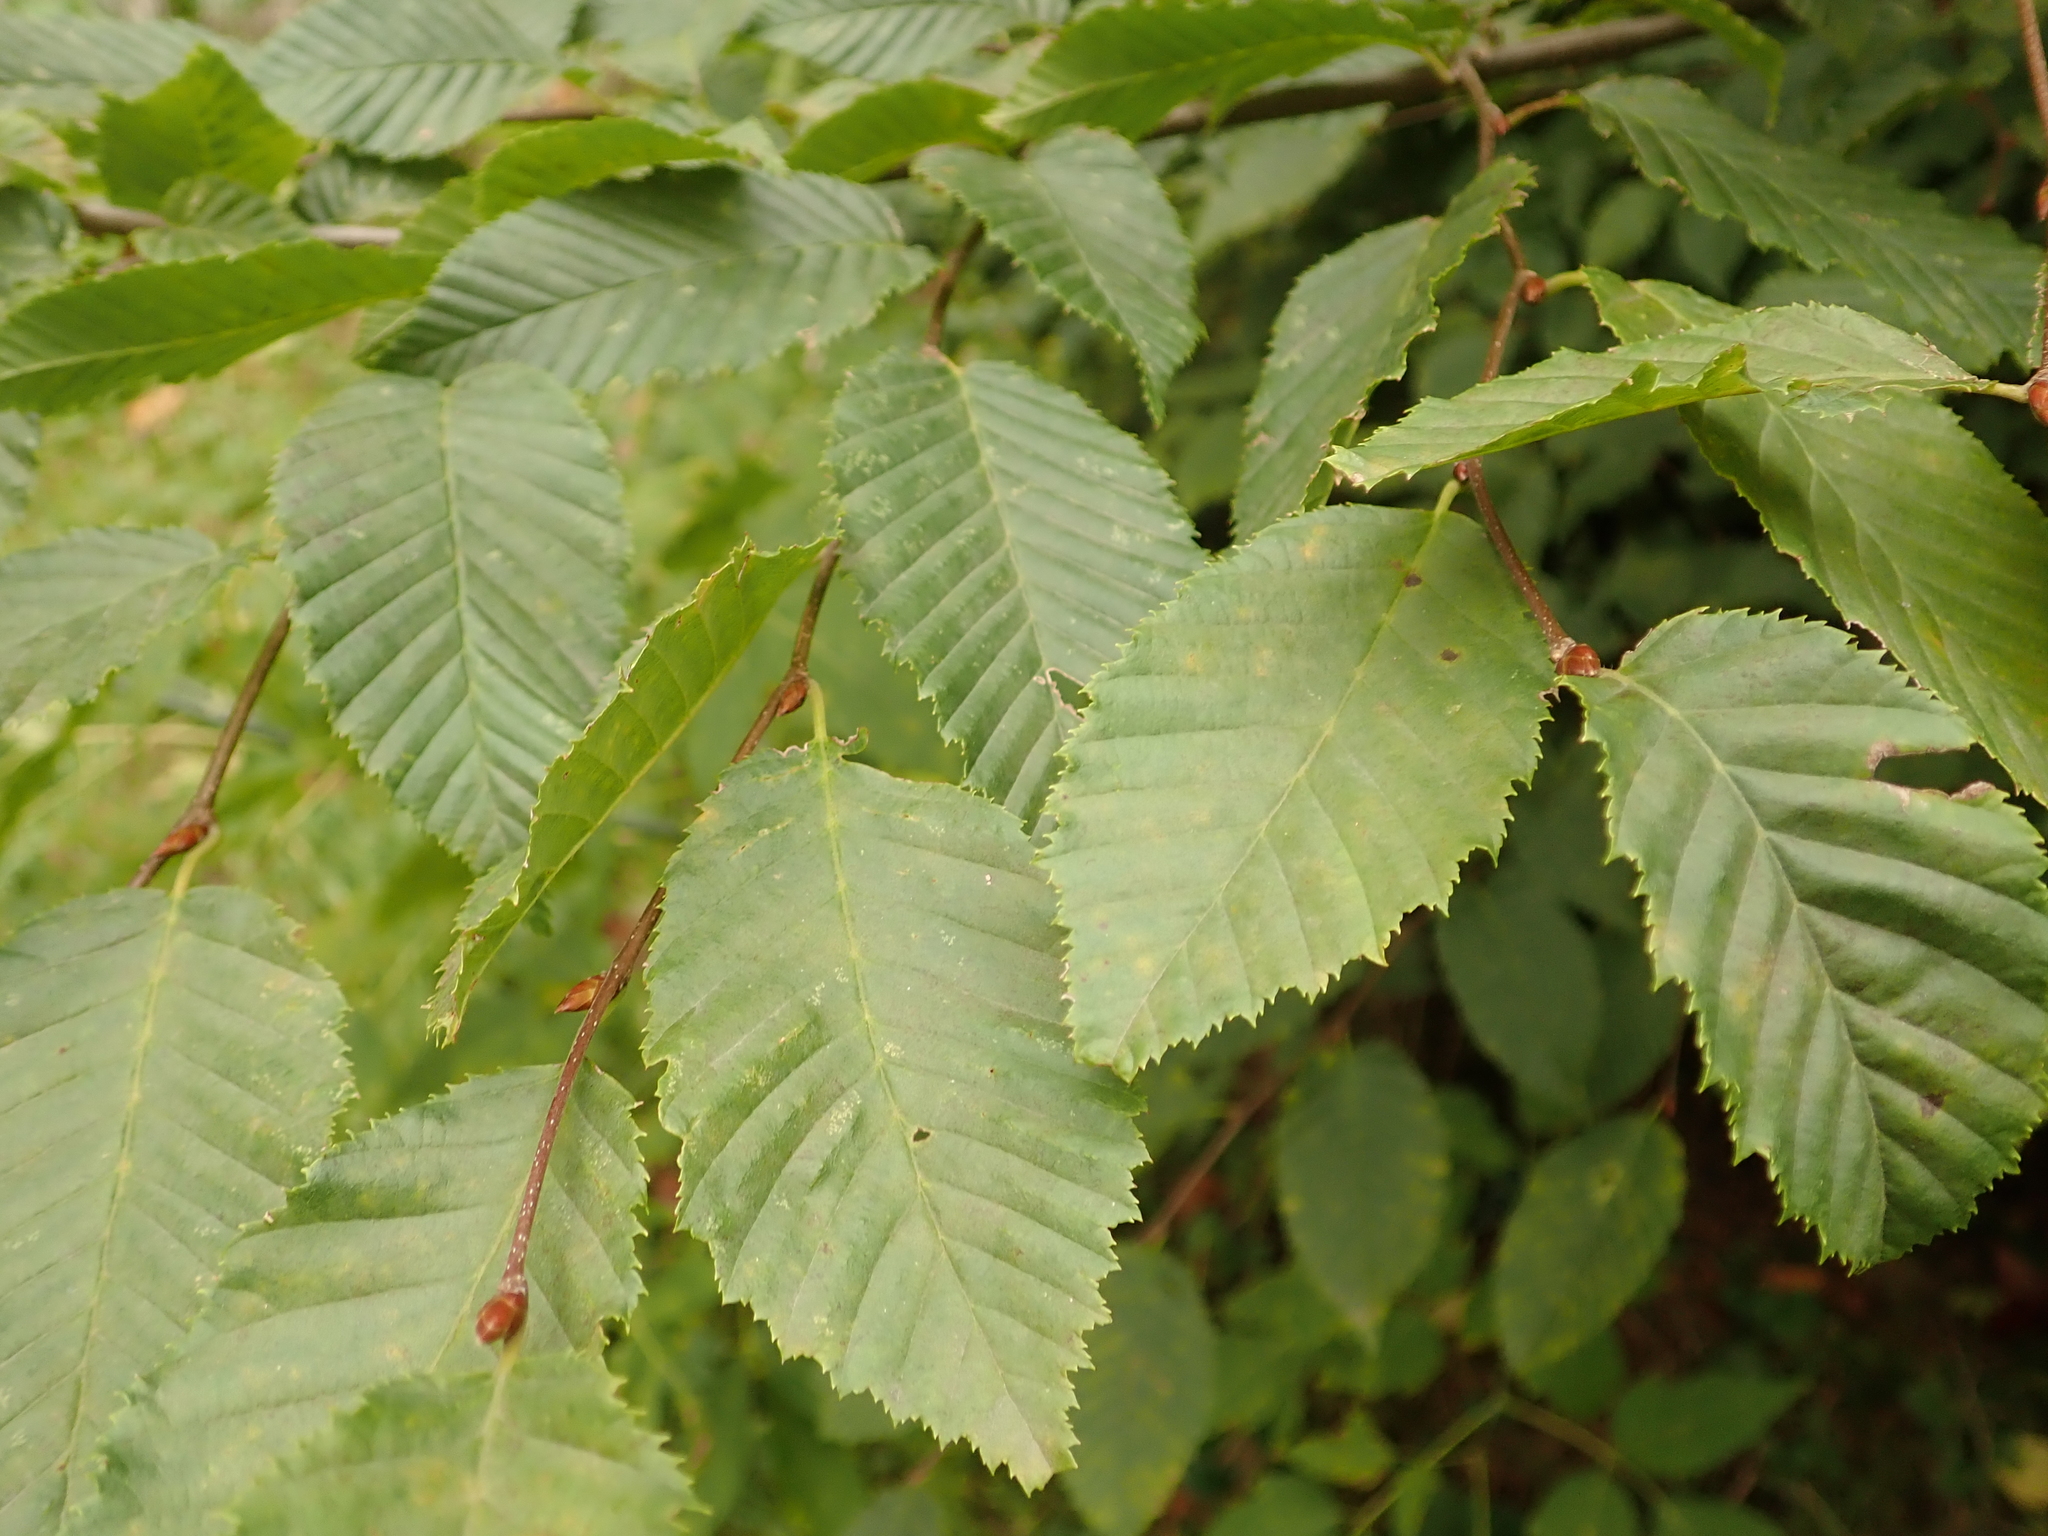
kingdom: Plantae
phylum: Tracheophyta
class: Magnoliopsida
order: Fagales
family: Betulaceae
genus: Carpinus
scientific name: Carpinus betulus
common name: Hornbeam
